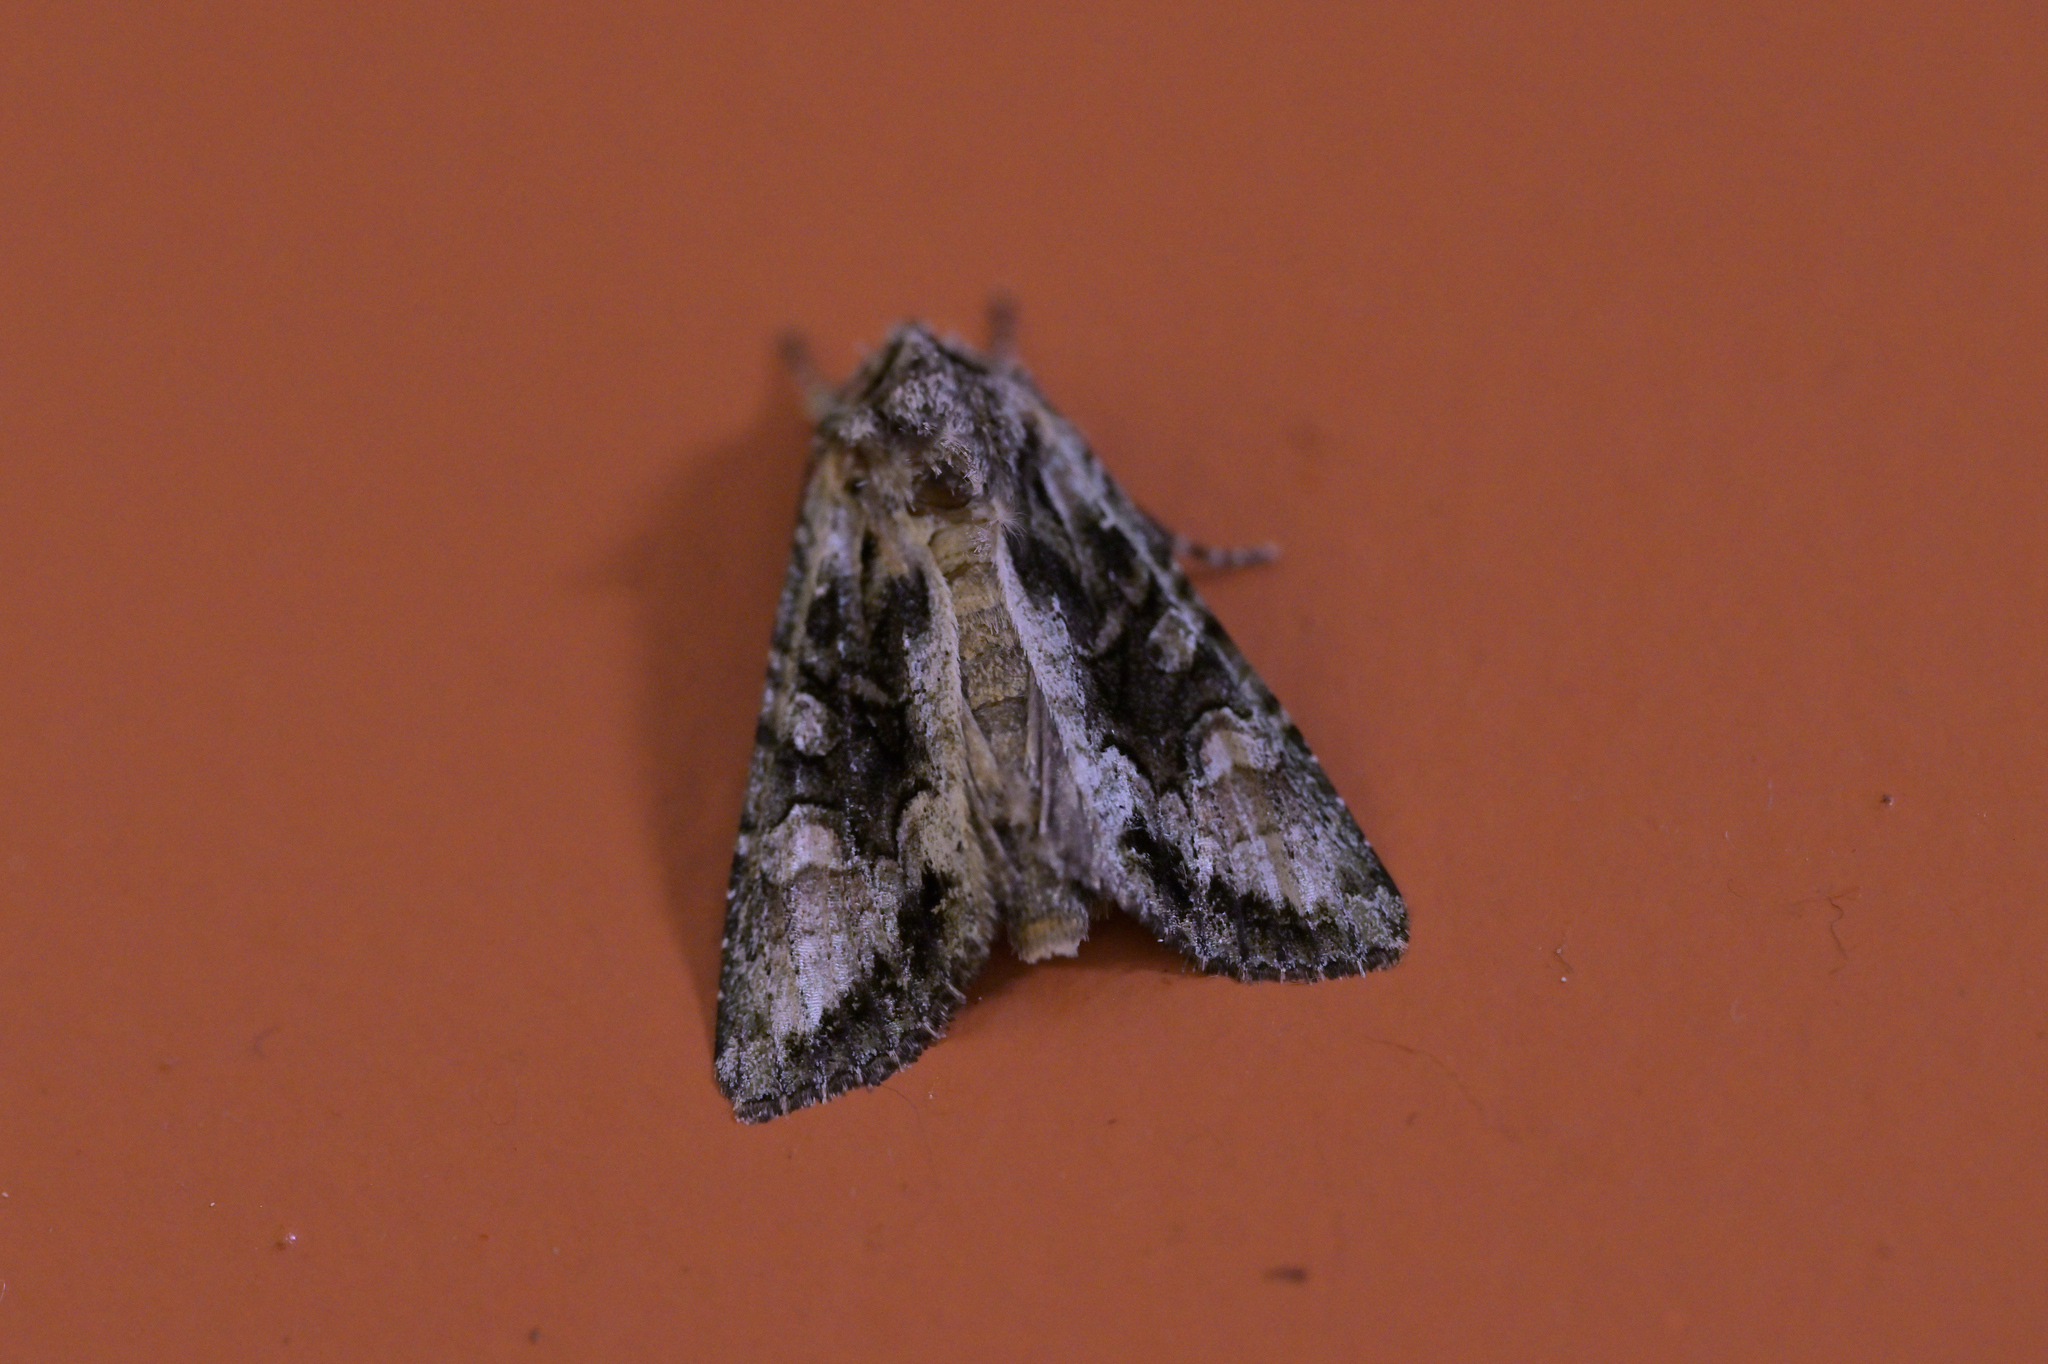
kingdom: Animalia
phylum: Arthropoda
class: Insecta
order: Lepidoptera
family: Noctuidae
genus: Ichneutica
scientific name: Ichneutica mutans
